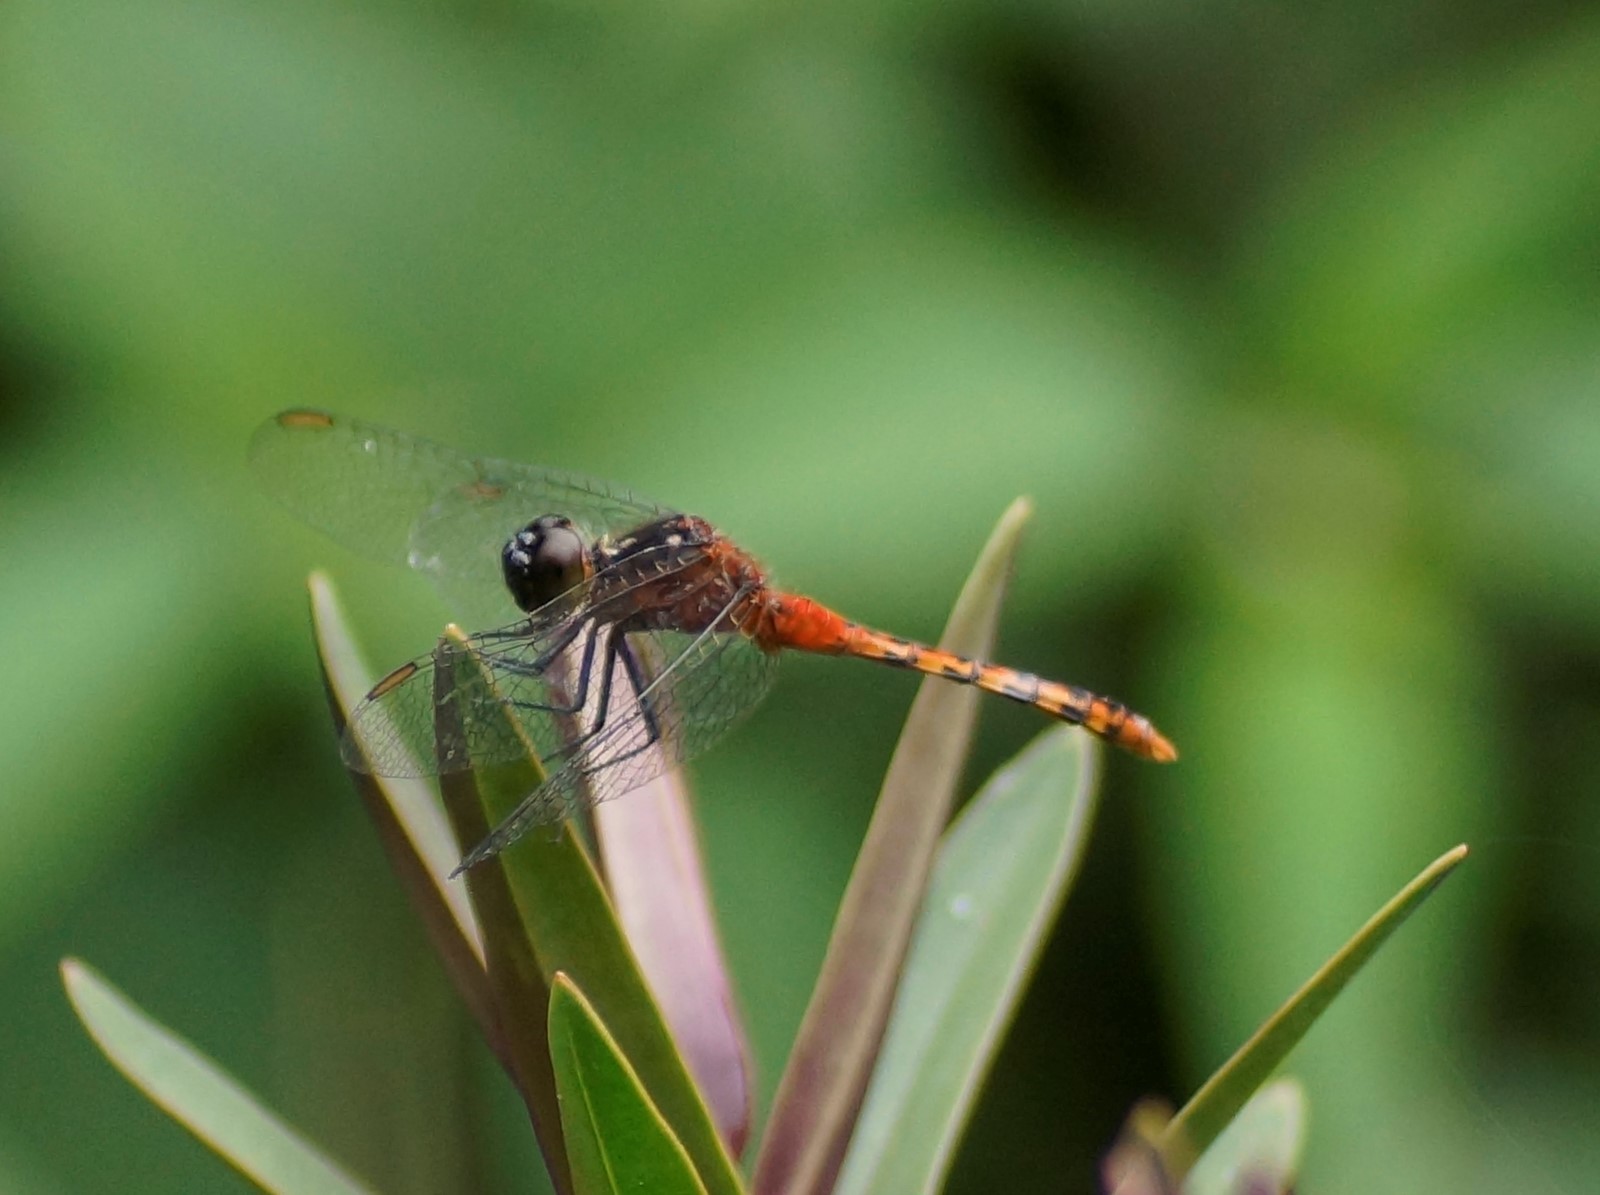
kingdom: Animalia
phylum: Arthropoda
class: Insecta
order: Odonata
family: Libellulidae
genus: Diplacodes
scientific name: Diplacodes melanopsis
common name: Black-faced percher
